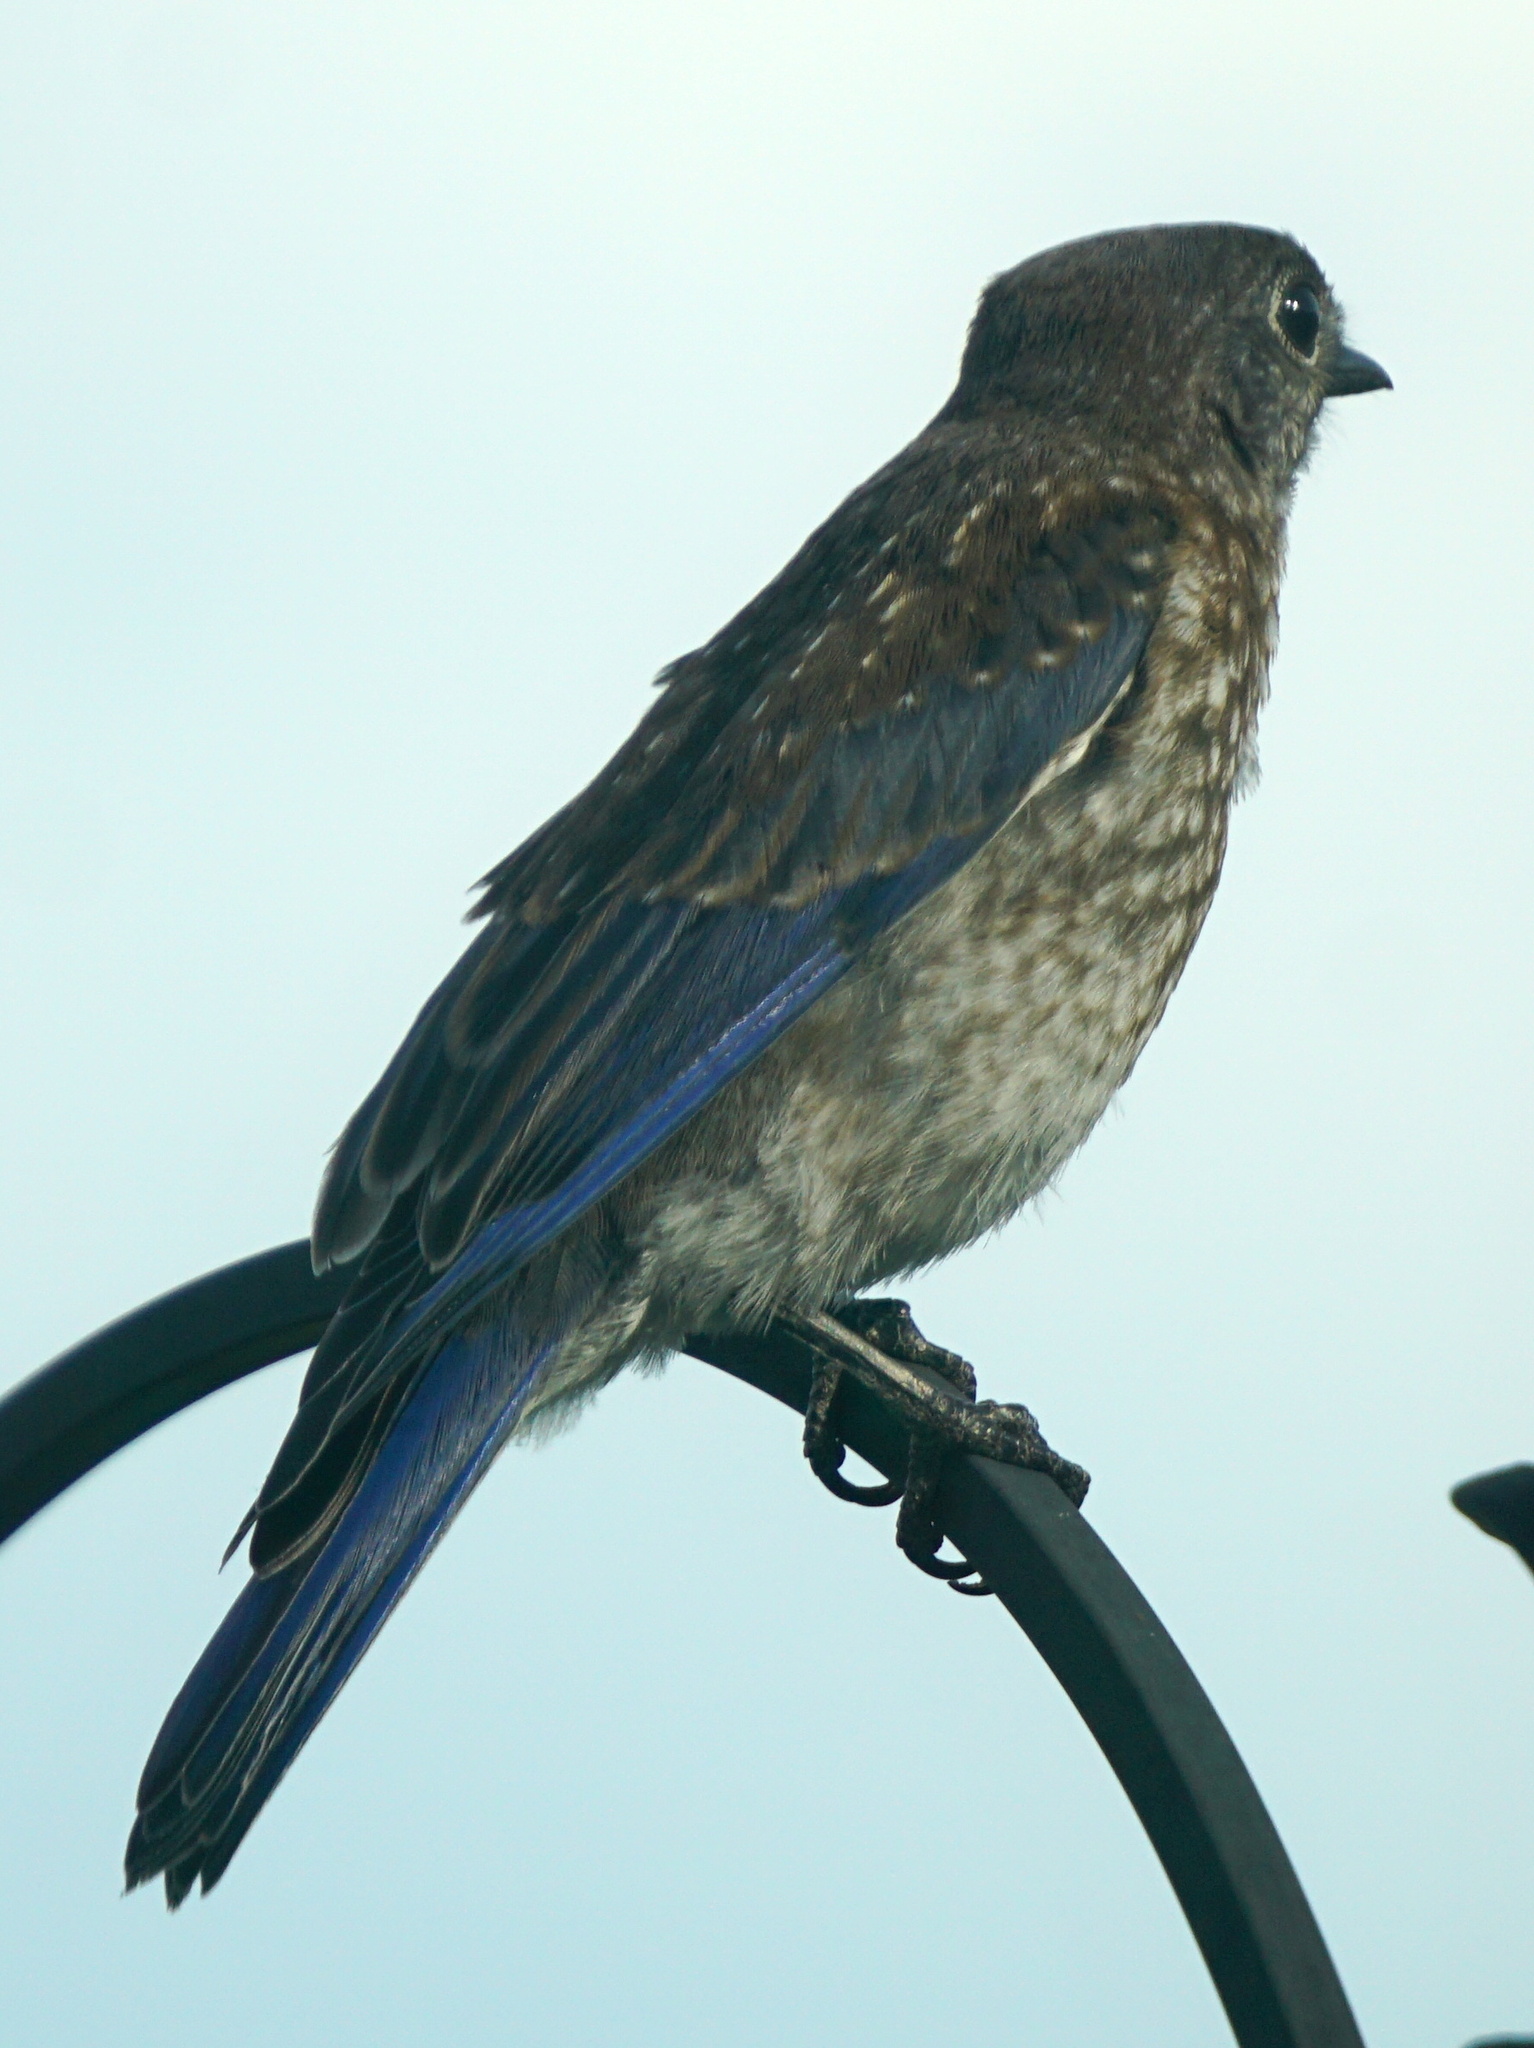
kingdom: Animalia
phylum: Chordata
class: Aves
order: Passeriformes
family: Turdidae
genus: Sialia
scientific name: Sialia sialis
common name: Eastern bluebird
